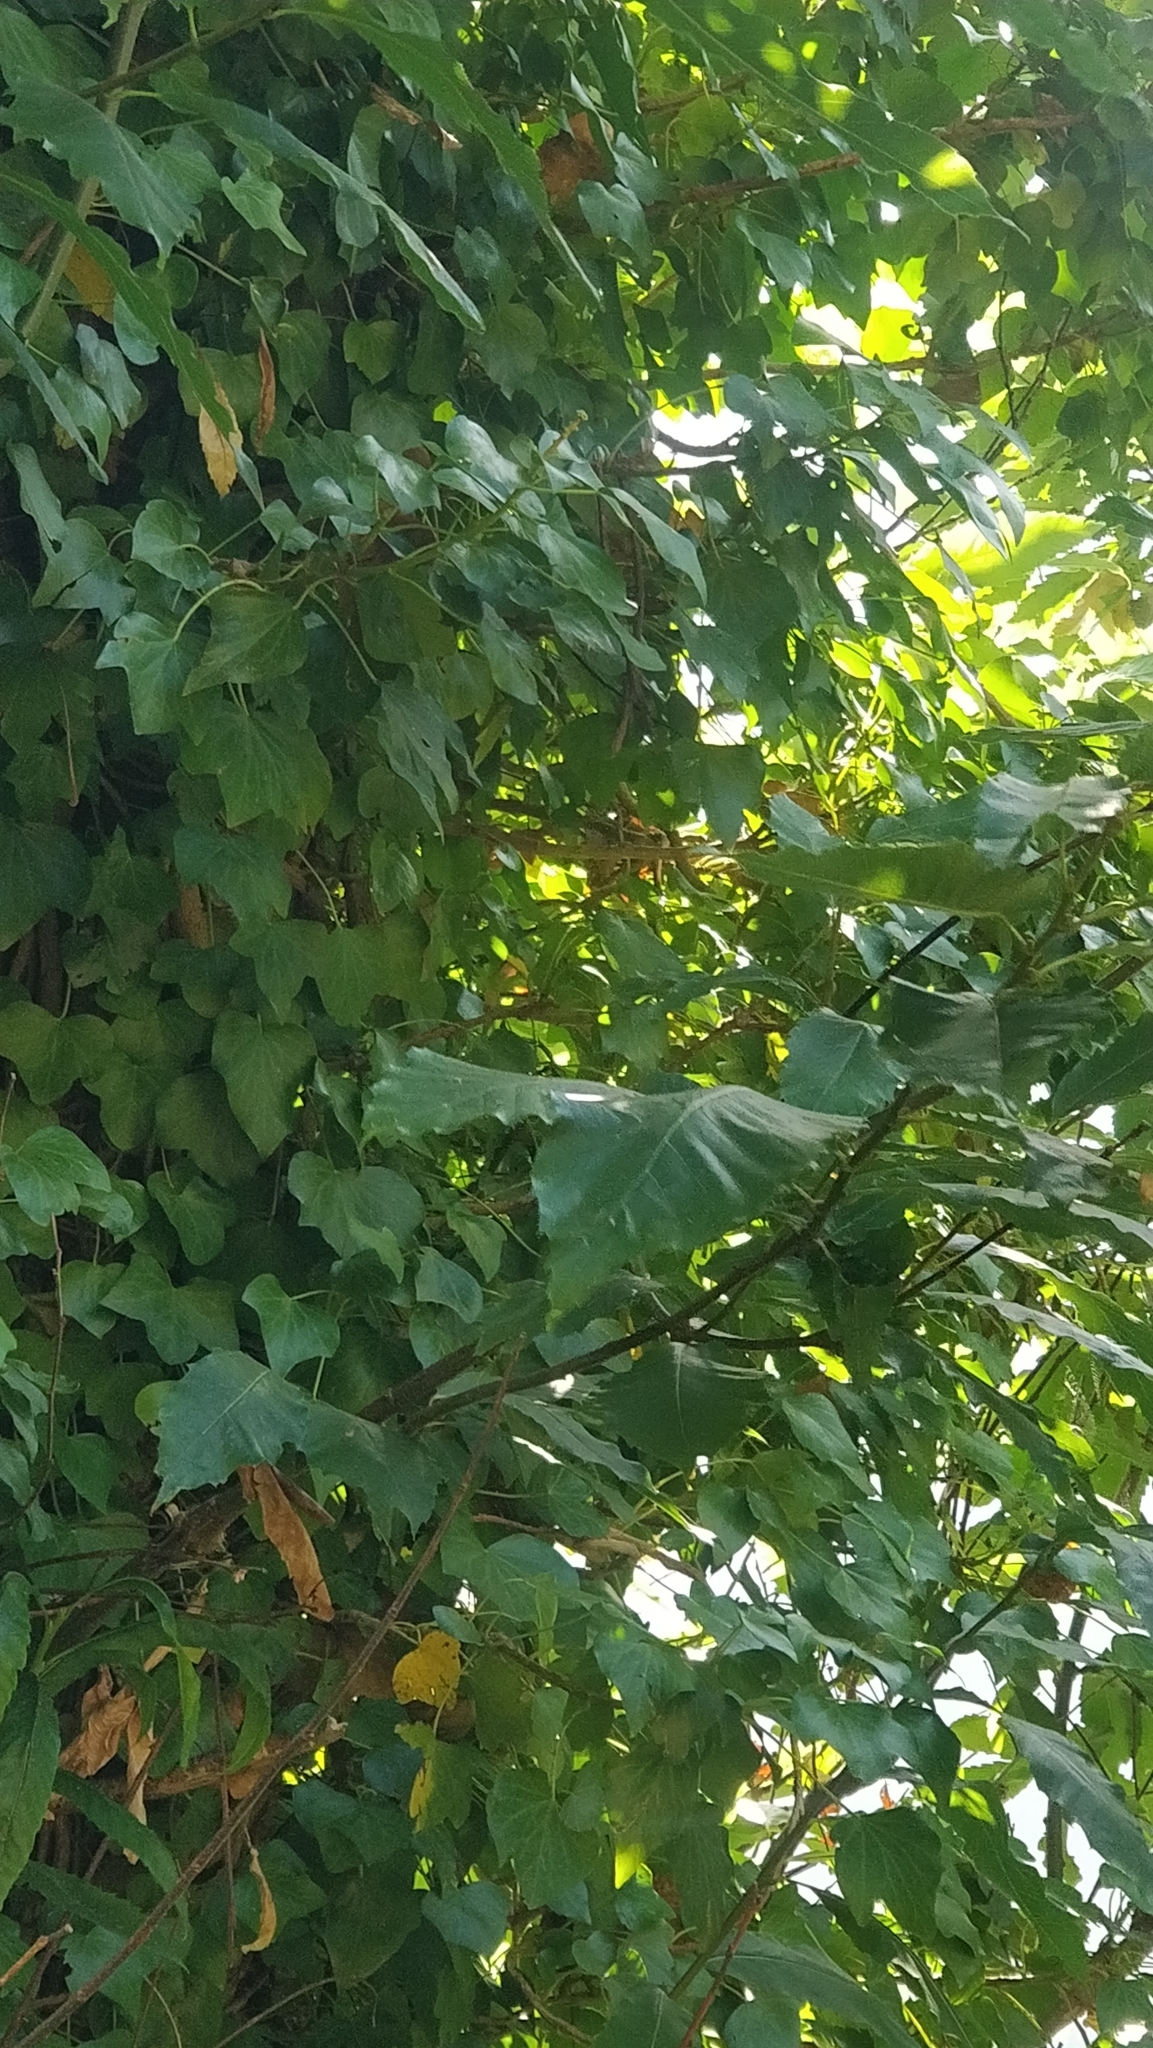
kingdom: Plantae
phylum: Tracheophyta
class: Magnoliopsida
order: Apiales
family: Araliaceae
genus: Hedera
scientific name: Hedera maderensis
